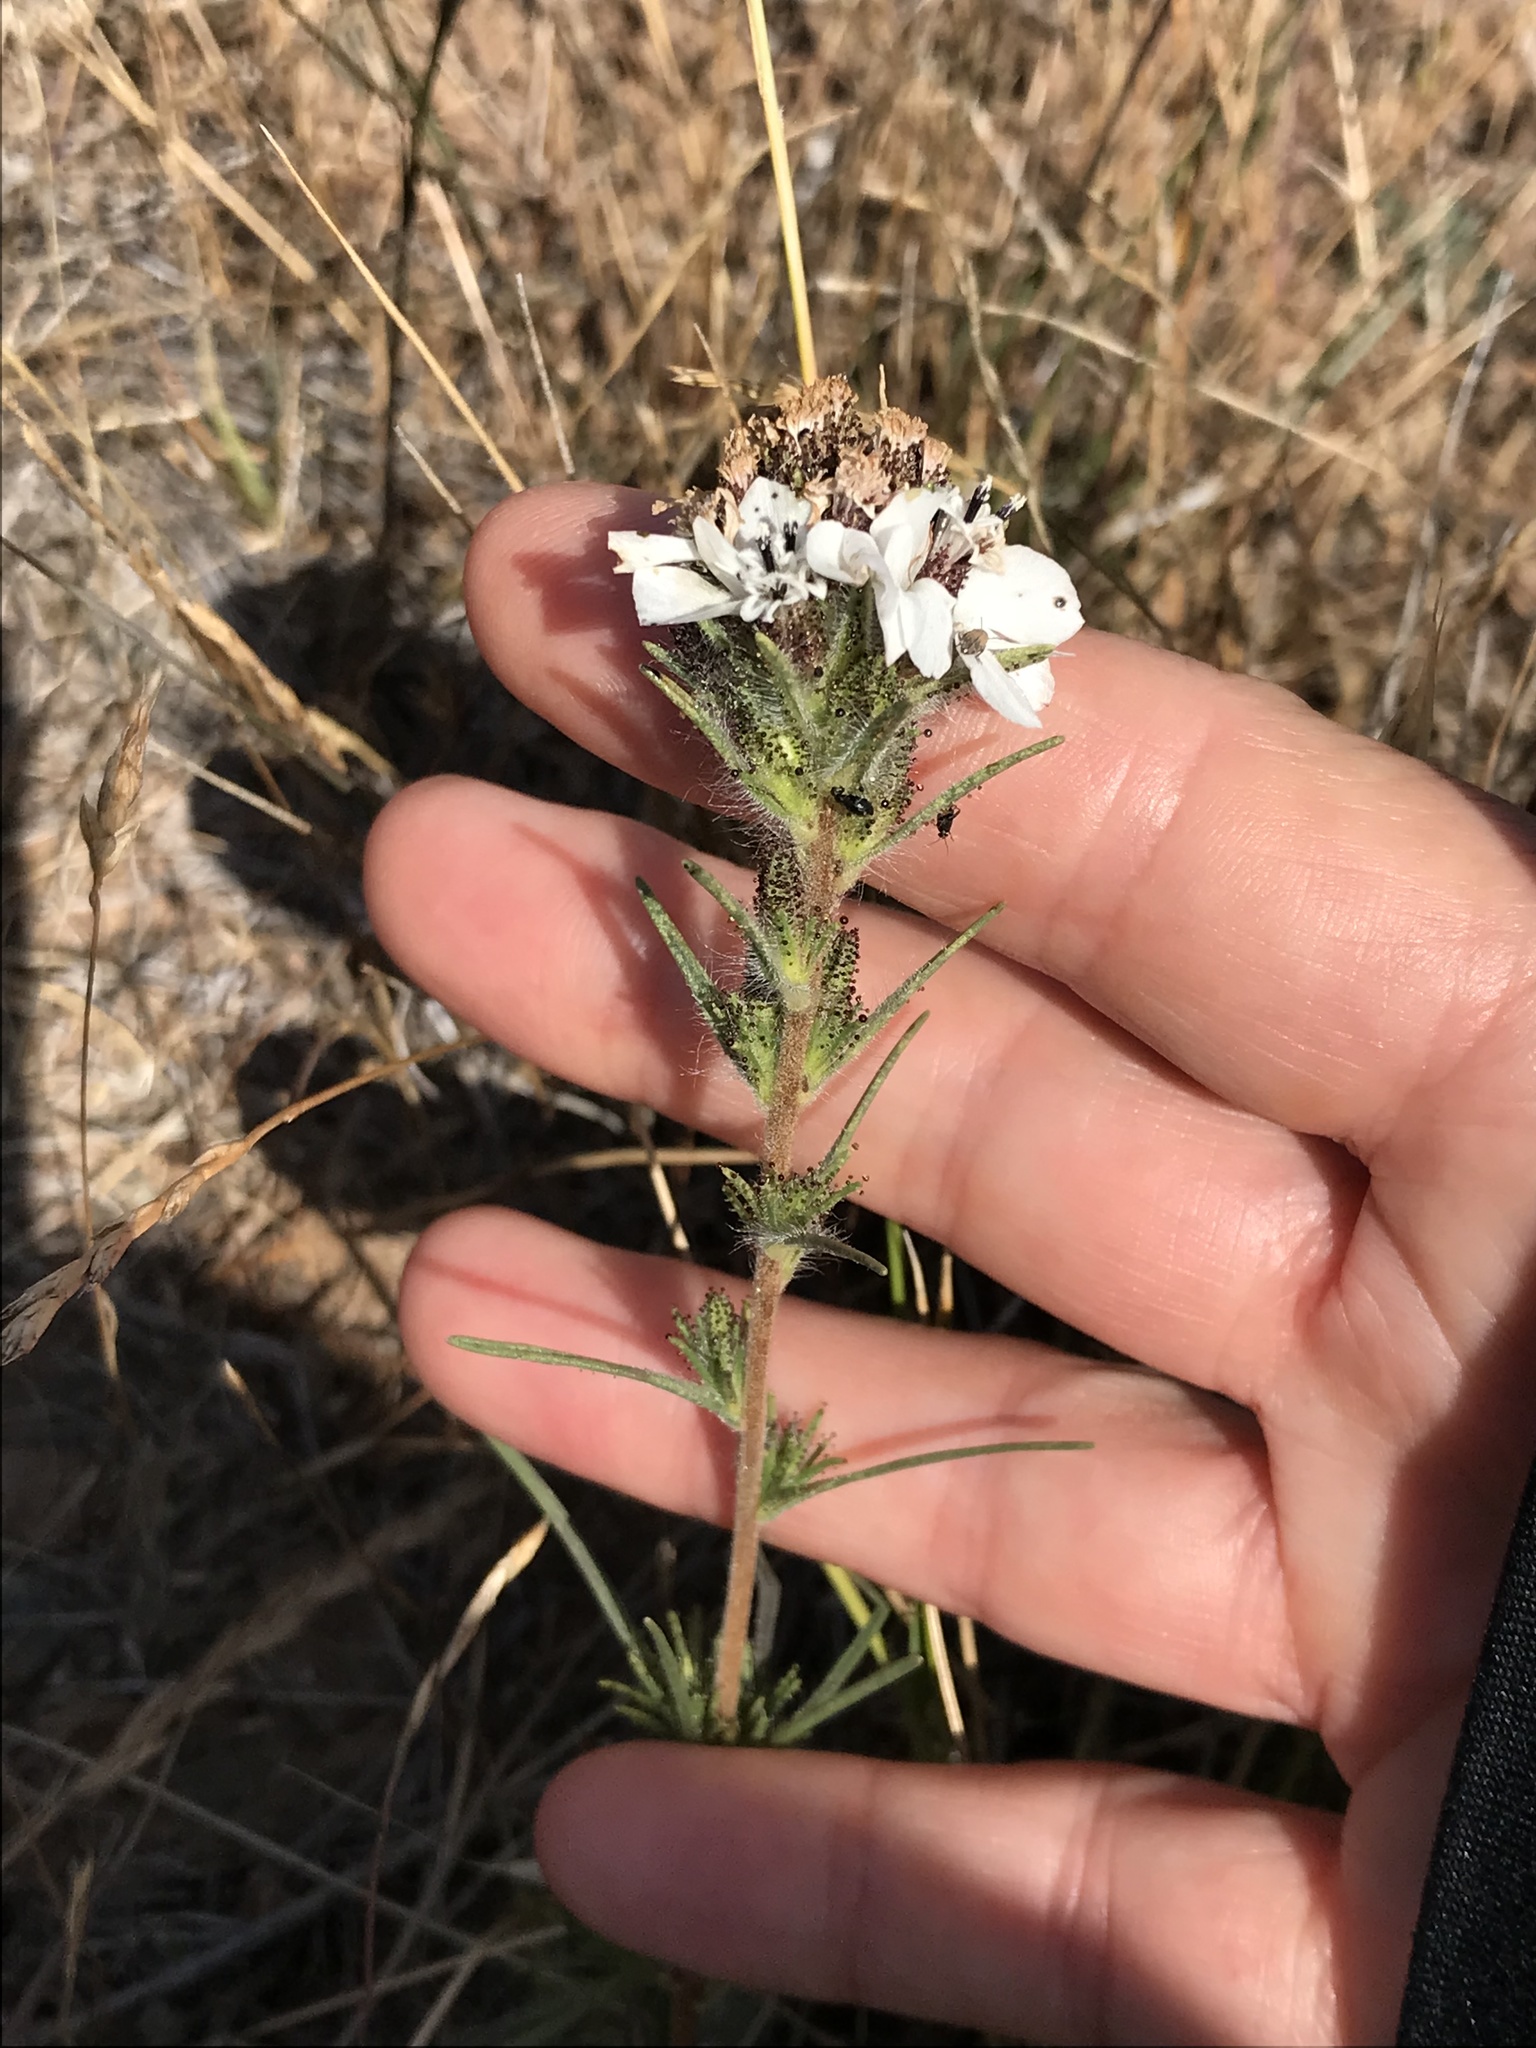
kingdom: Plantae
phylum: Tracheophyta
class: Magnoliopsida
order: Asterales
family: Asteraceae
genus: Calycadenia
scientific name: Calycadenia multiglandulosa
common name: Sticky calycadenia
